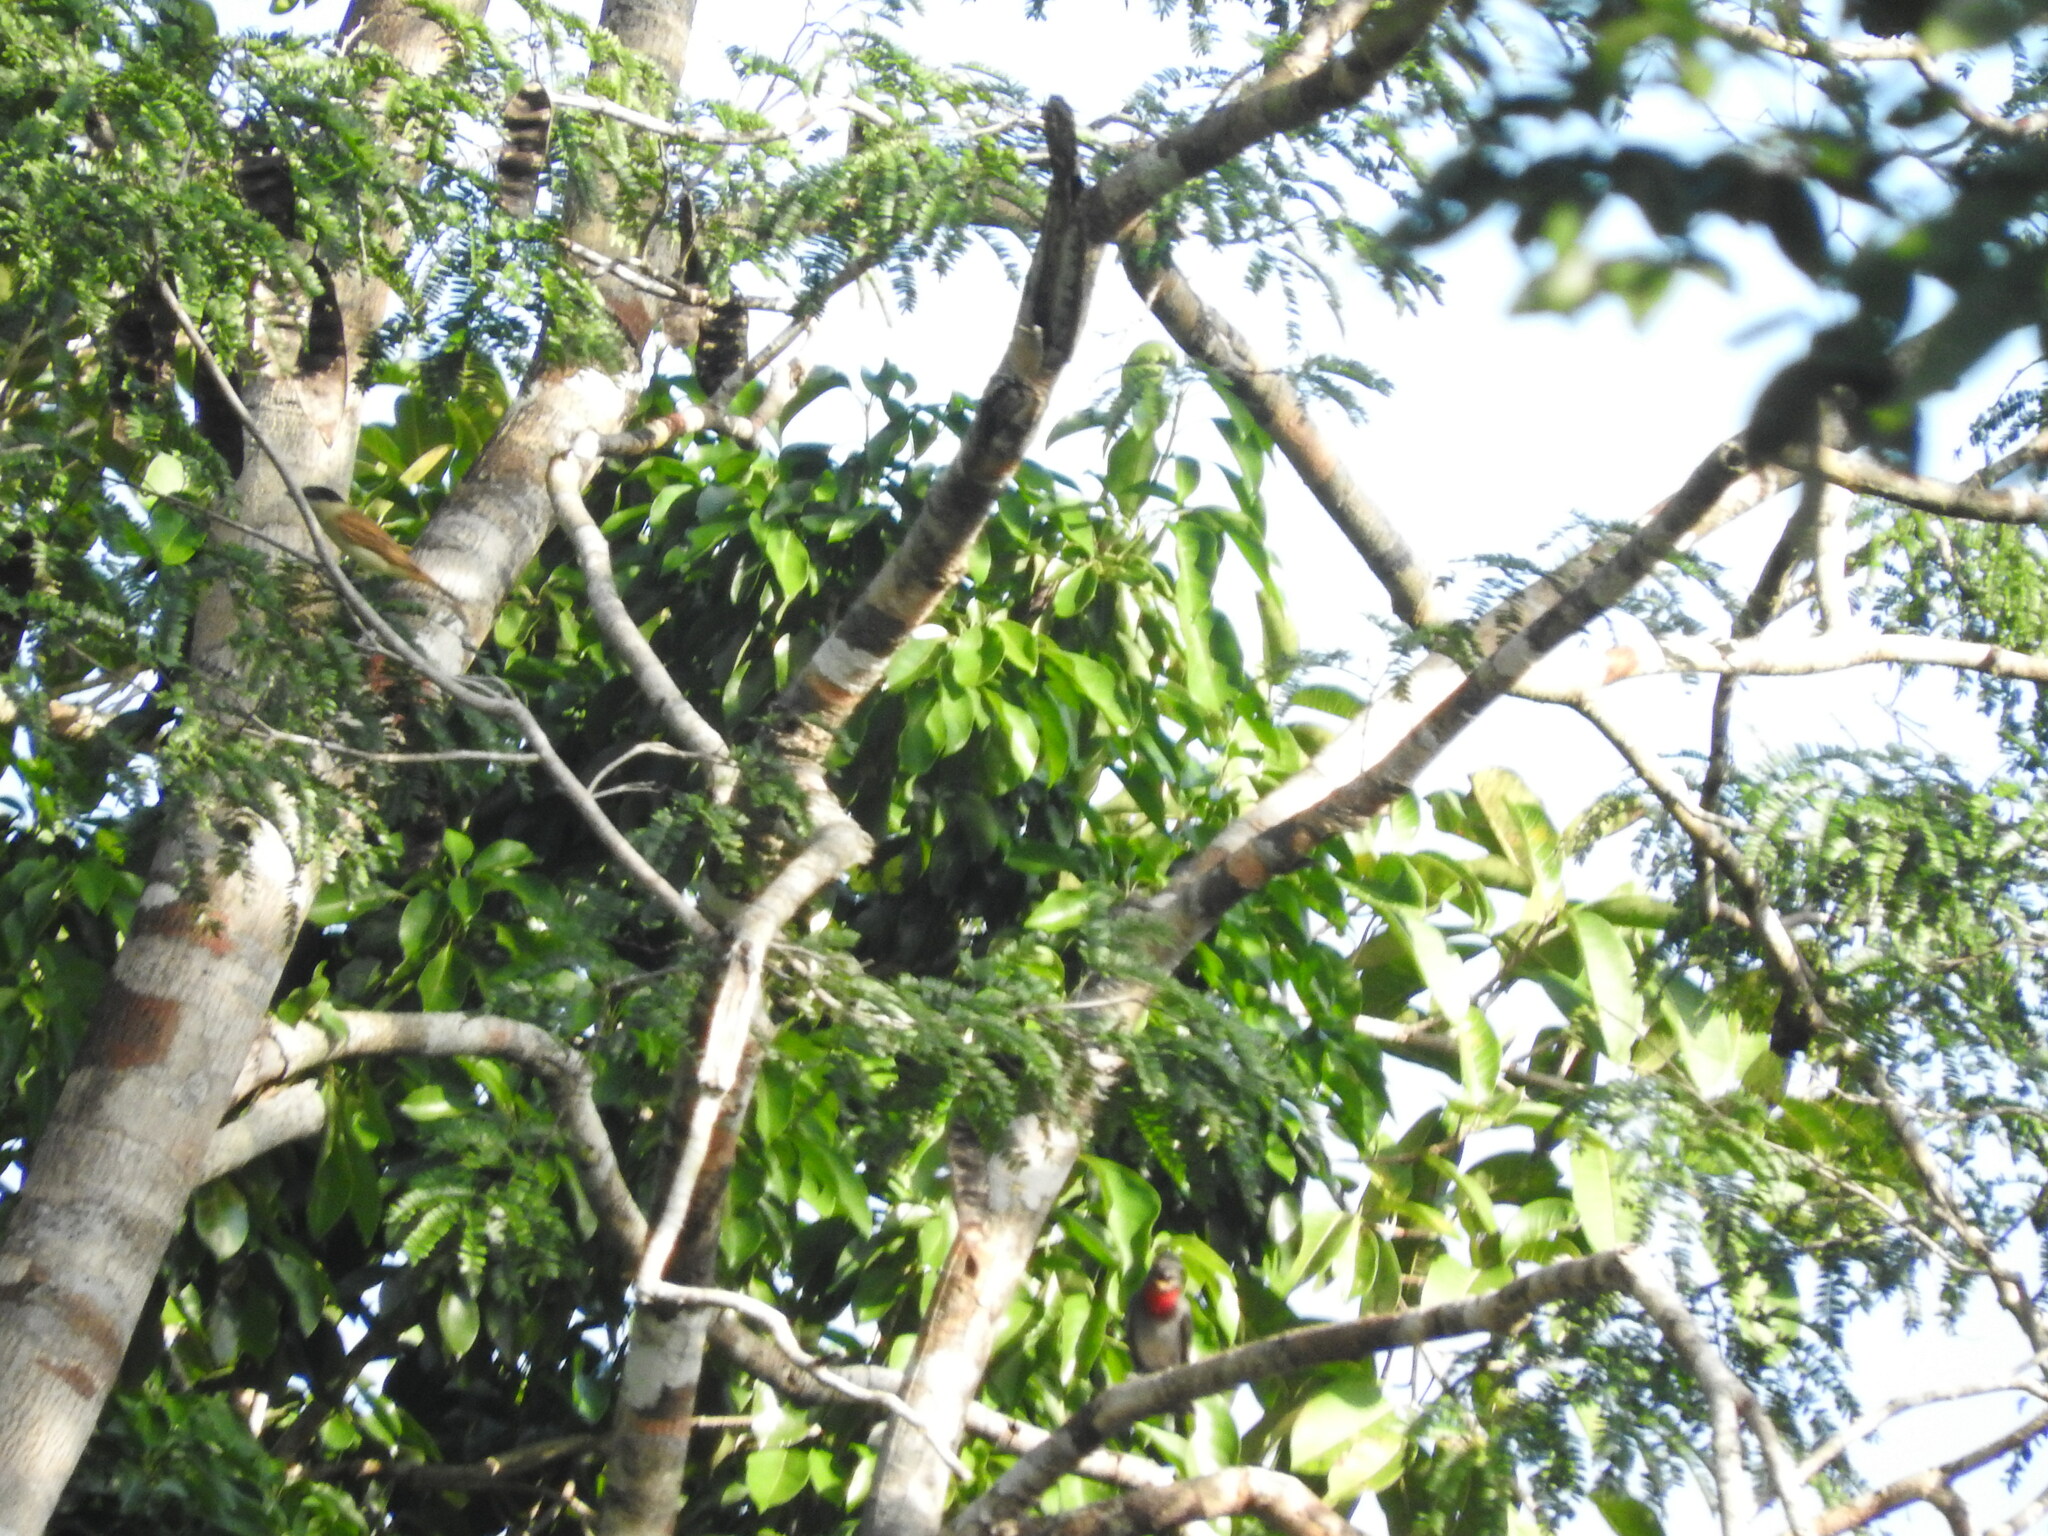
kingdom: Animalia
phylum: Chordata
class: Aves
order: Passeriformes
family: Cotingidae
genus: Pachyramphus
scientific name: Pachyramphus aglaiae
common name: Rose-throated becard
